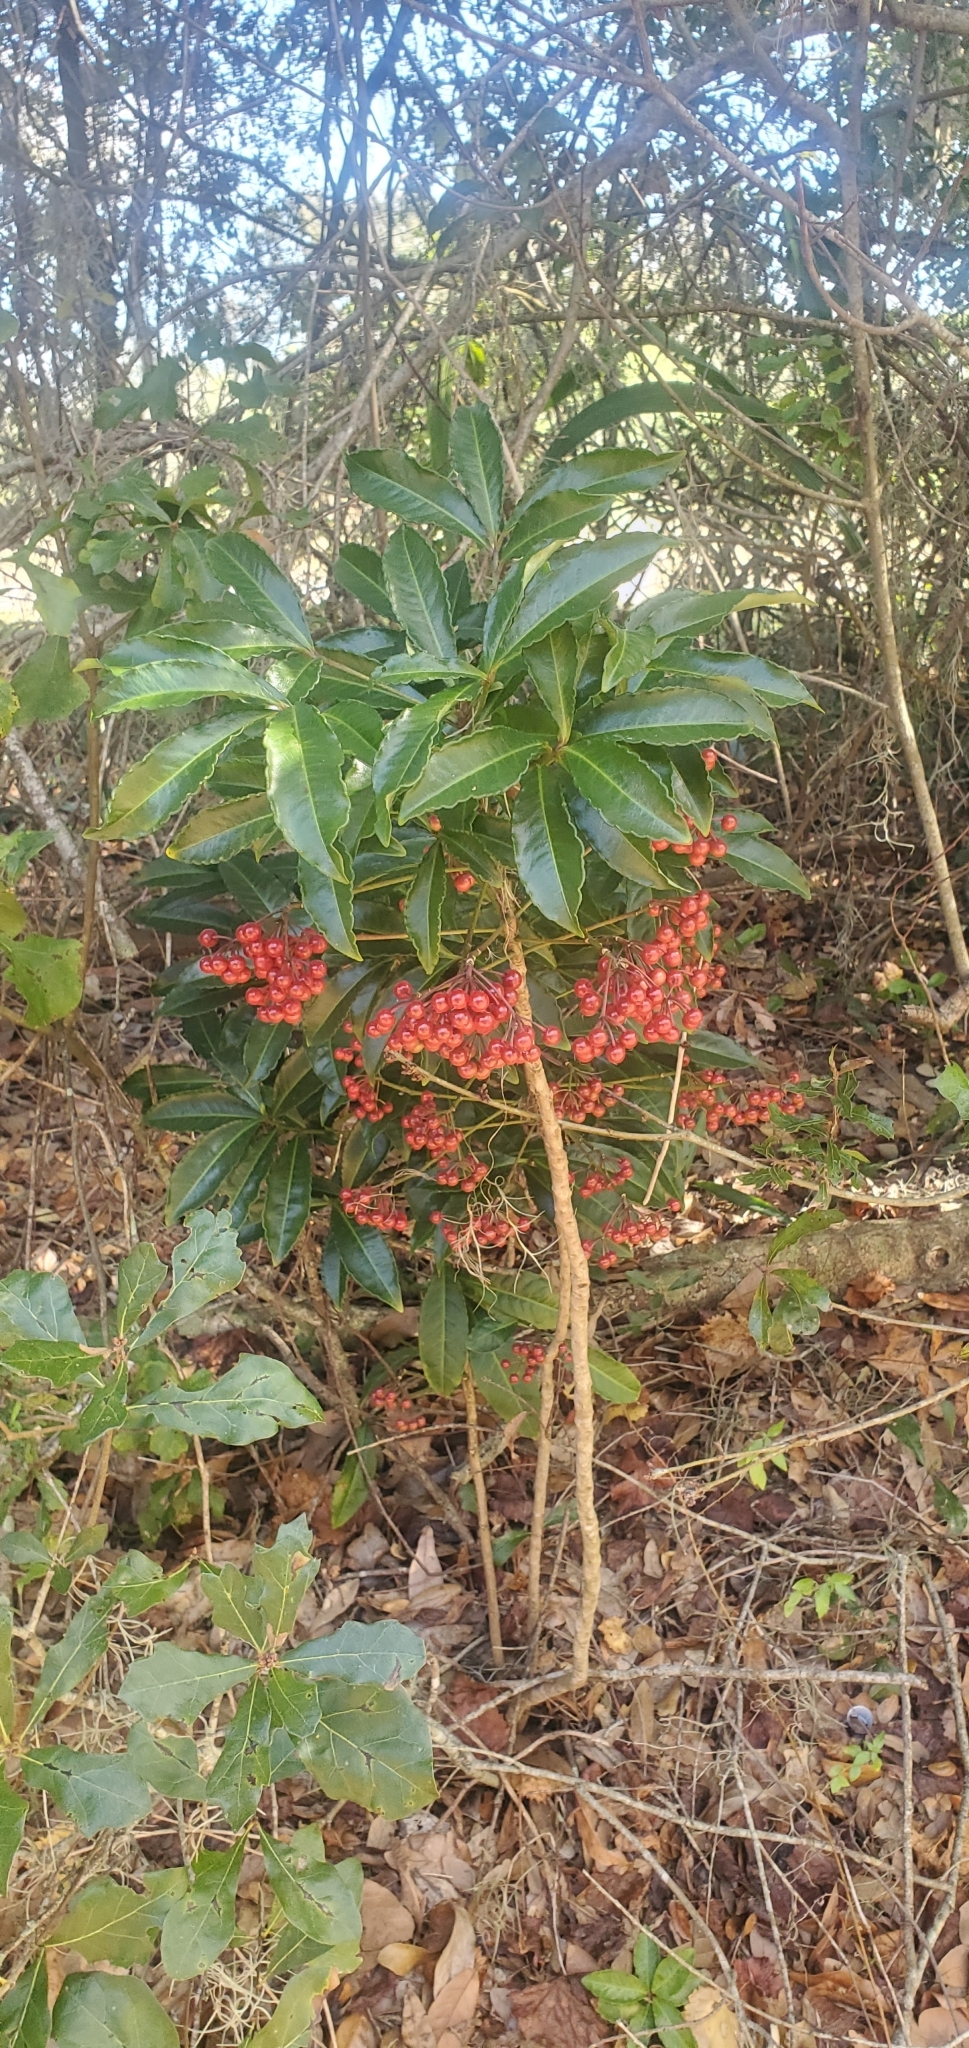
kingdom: Plantae
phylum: Tracheophyta
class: Magnoliopsida
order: Ericales
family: Primulaceae
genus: Ardisia
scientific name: Ardisia crenata
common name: Hen's eyes
